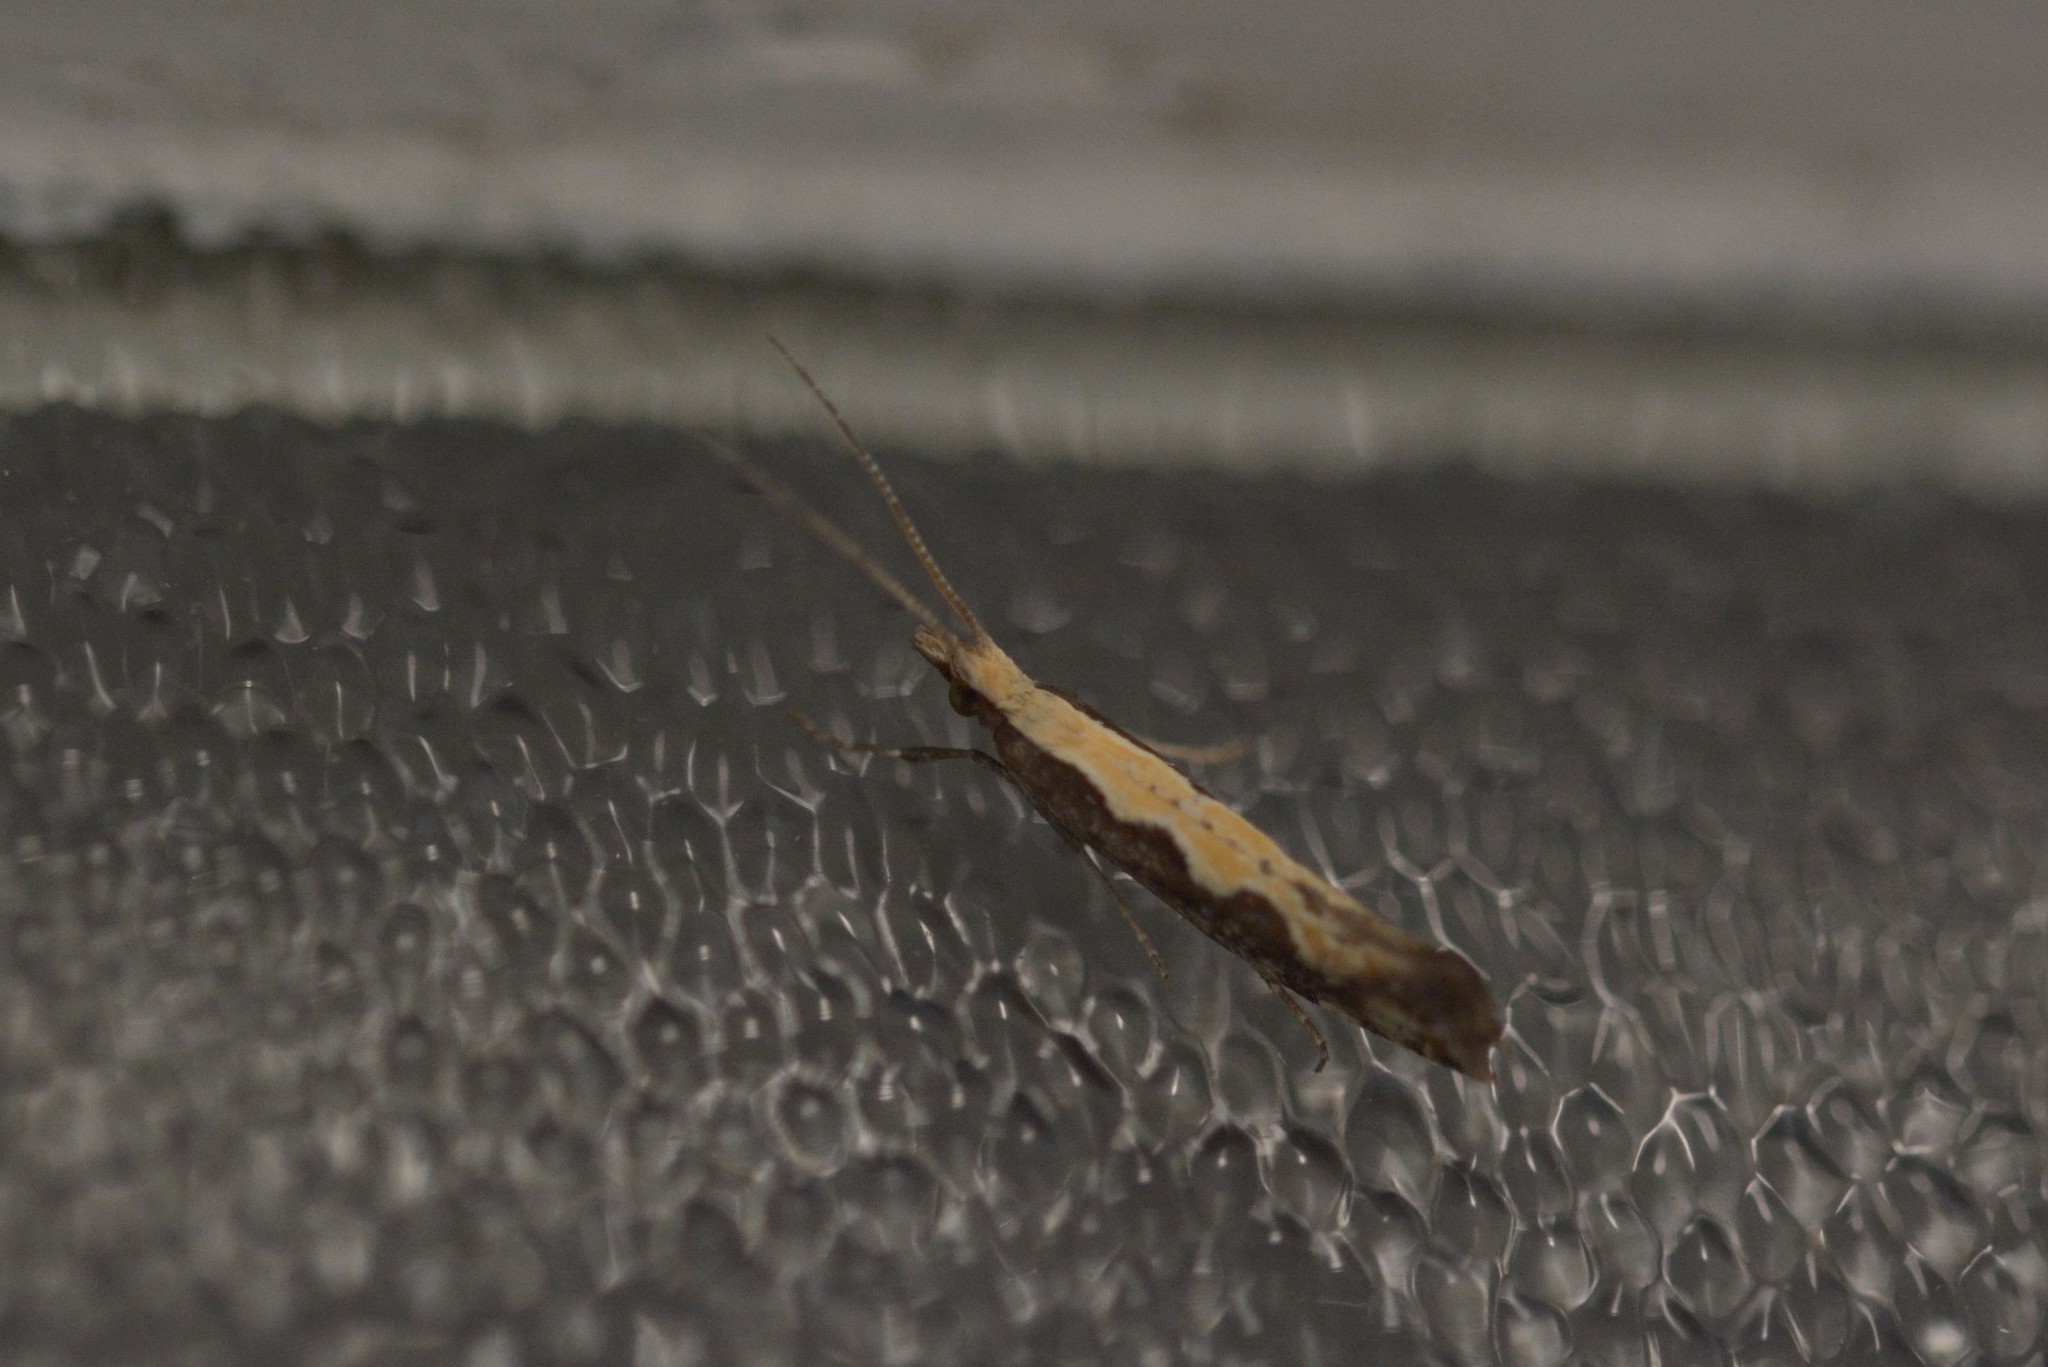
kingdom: Animalia
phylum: Arthropoda
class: Insecta
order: Lepidoptera
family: Plutellidae
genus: Plutella
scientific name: Plutella xylostella
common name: Diamond-back moth
